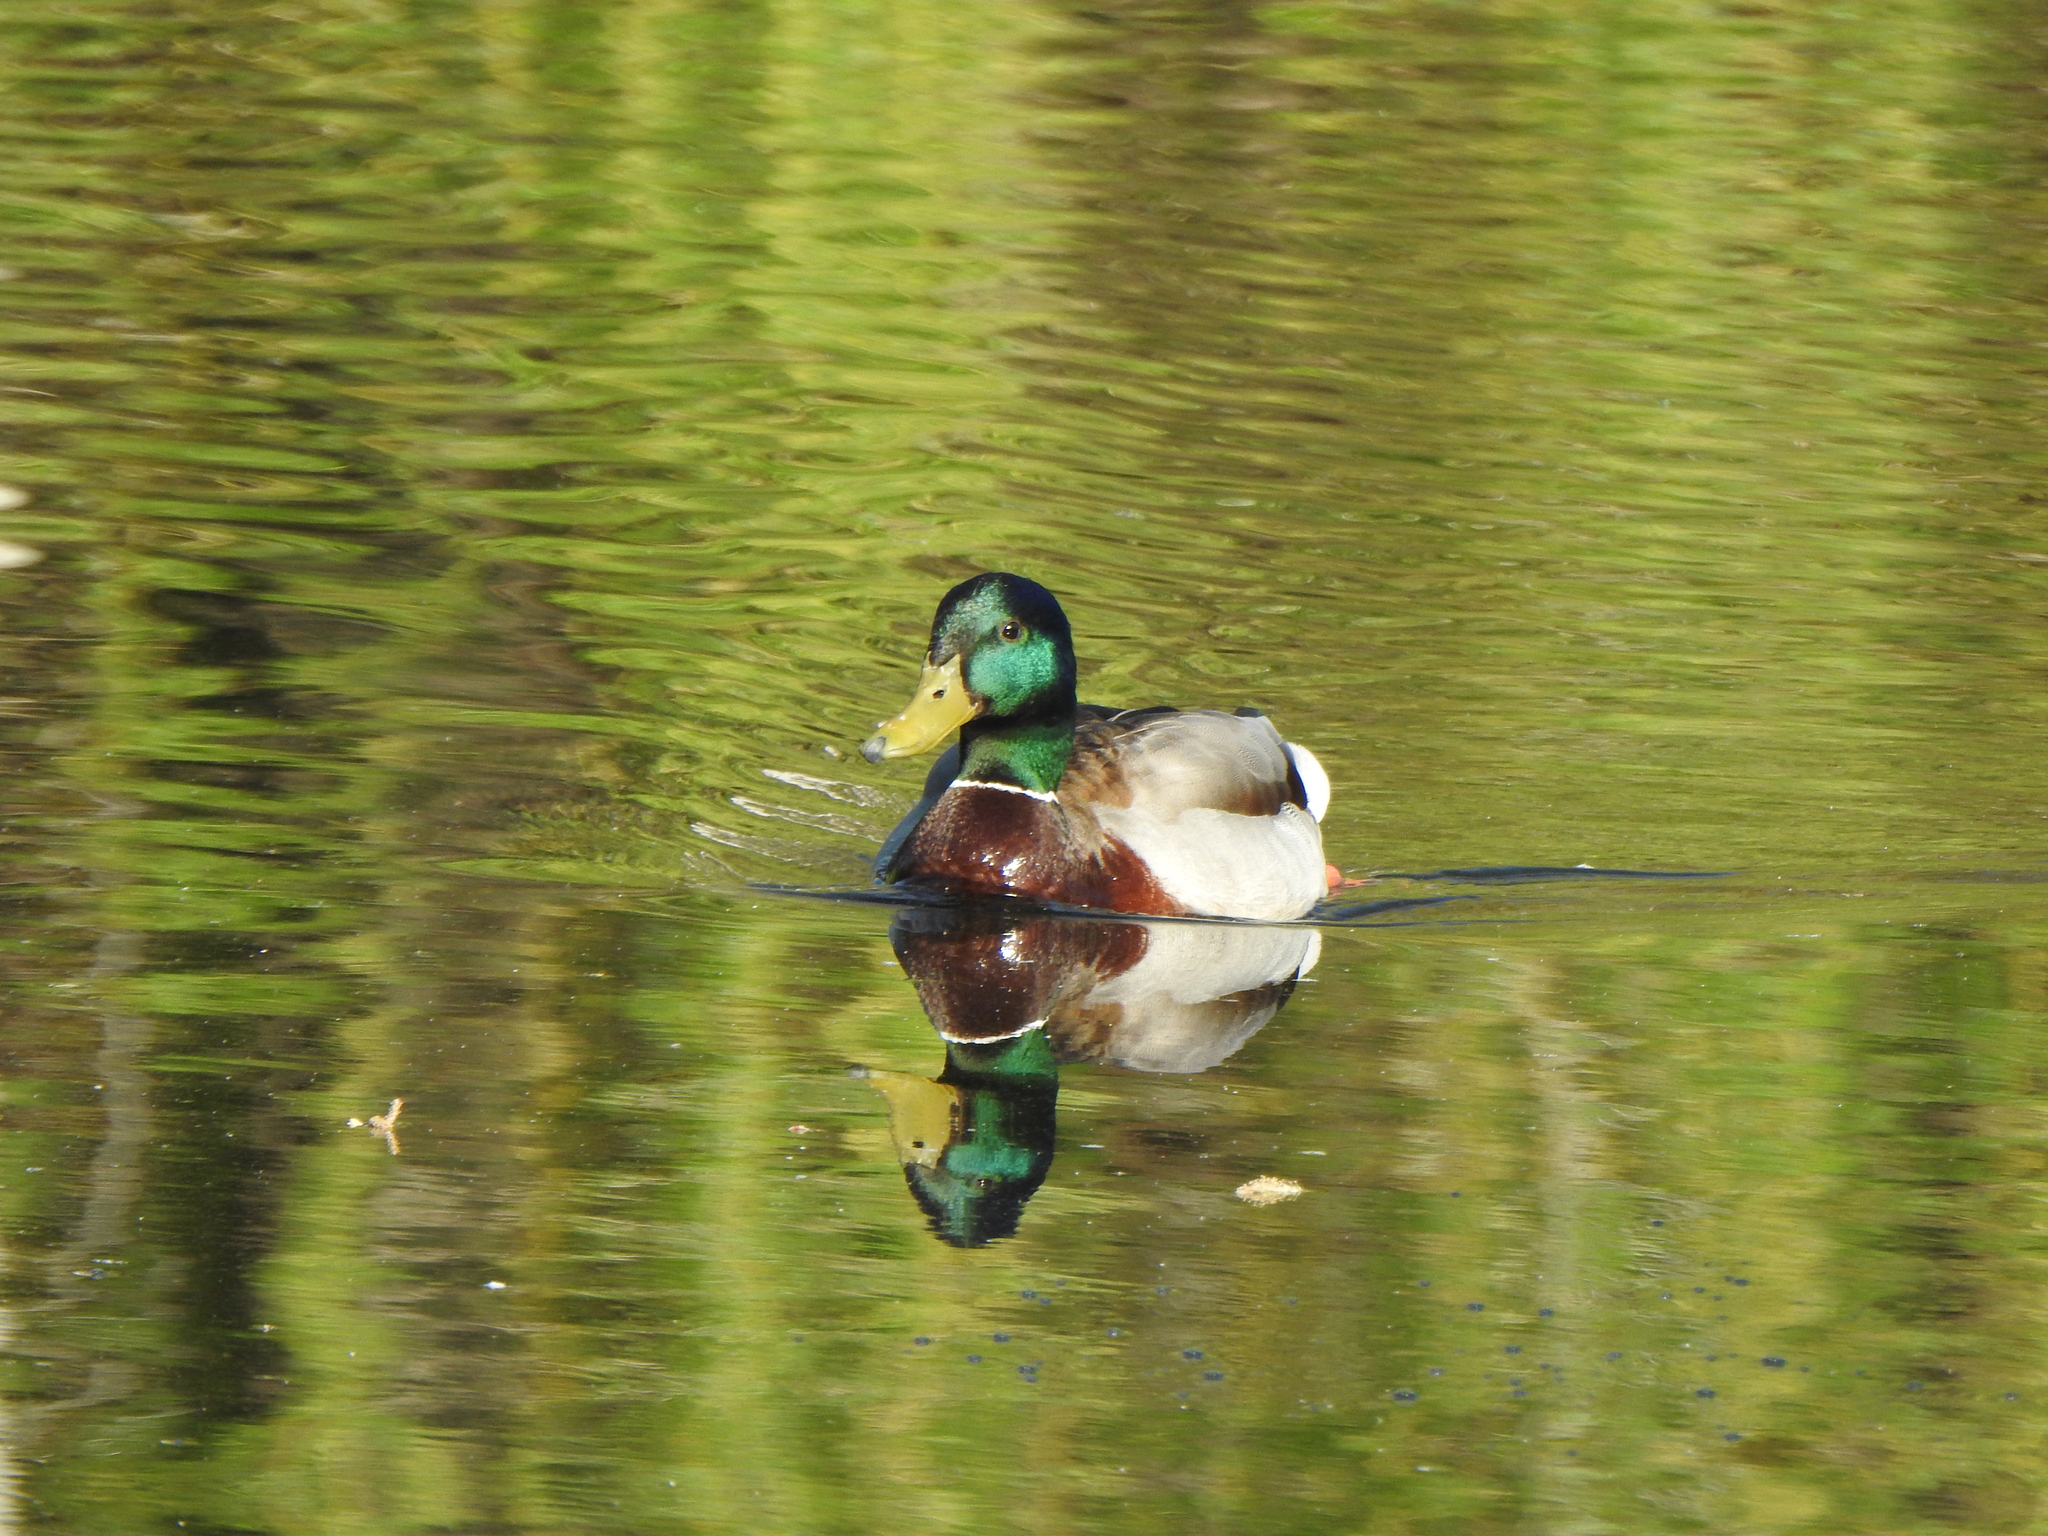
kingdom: Animalia
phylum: Chordata
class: Aves
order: Anseriformes
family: Anatidae
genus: Anas
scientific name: Anas platyrhynchos
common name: Mallard
